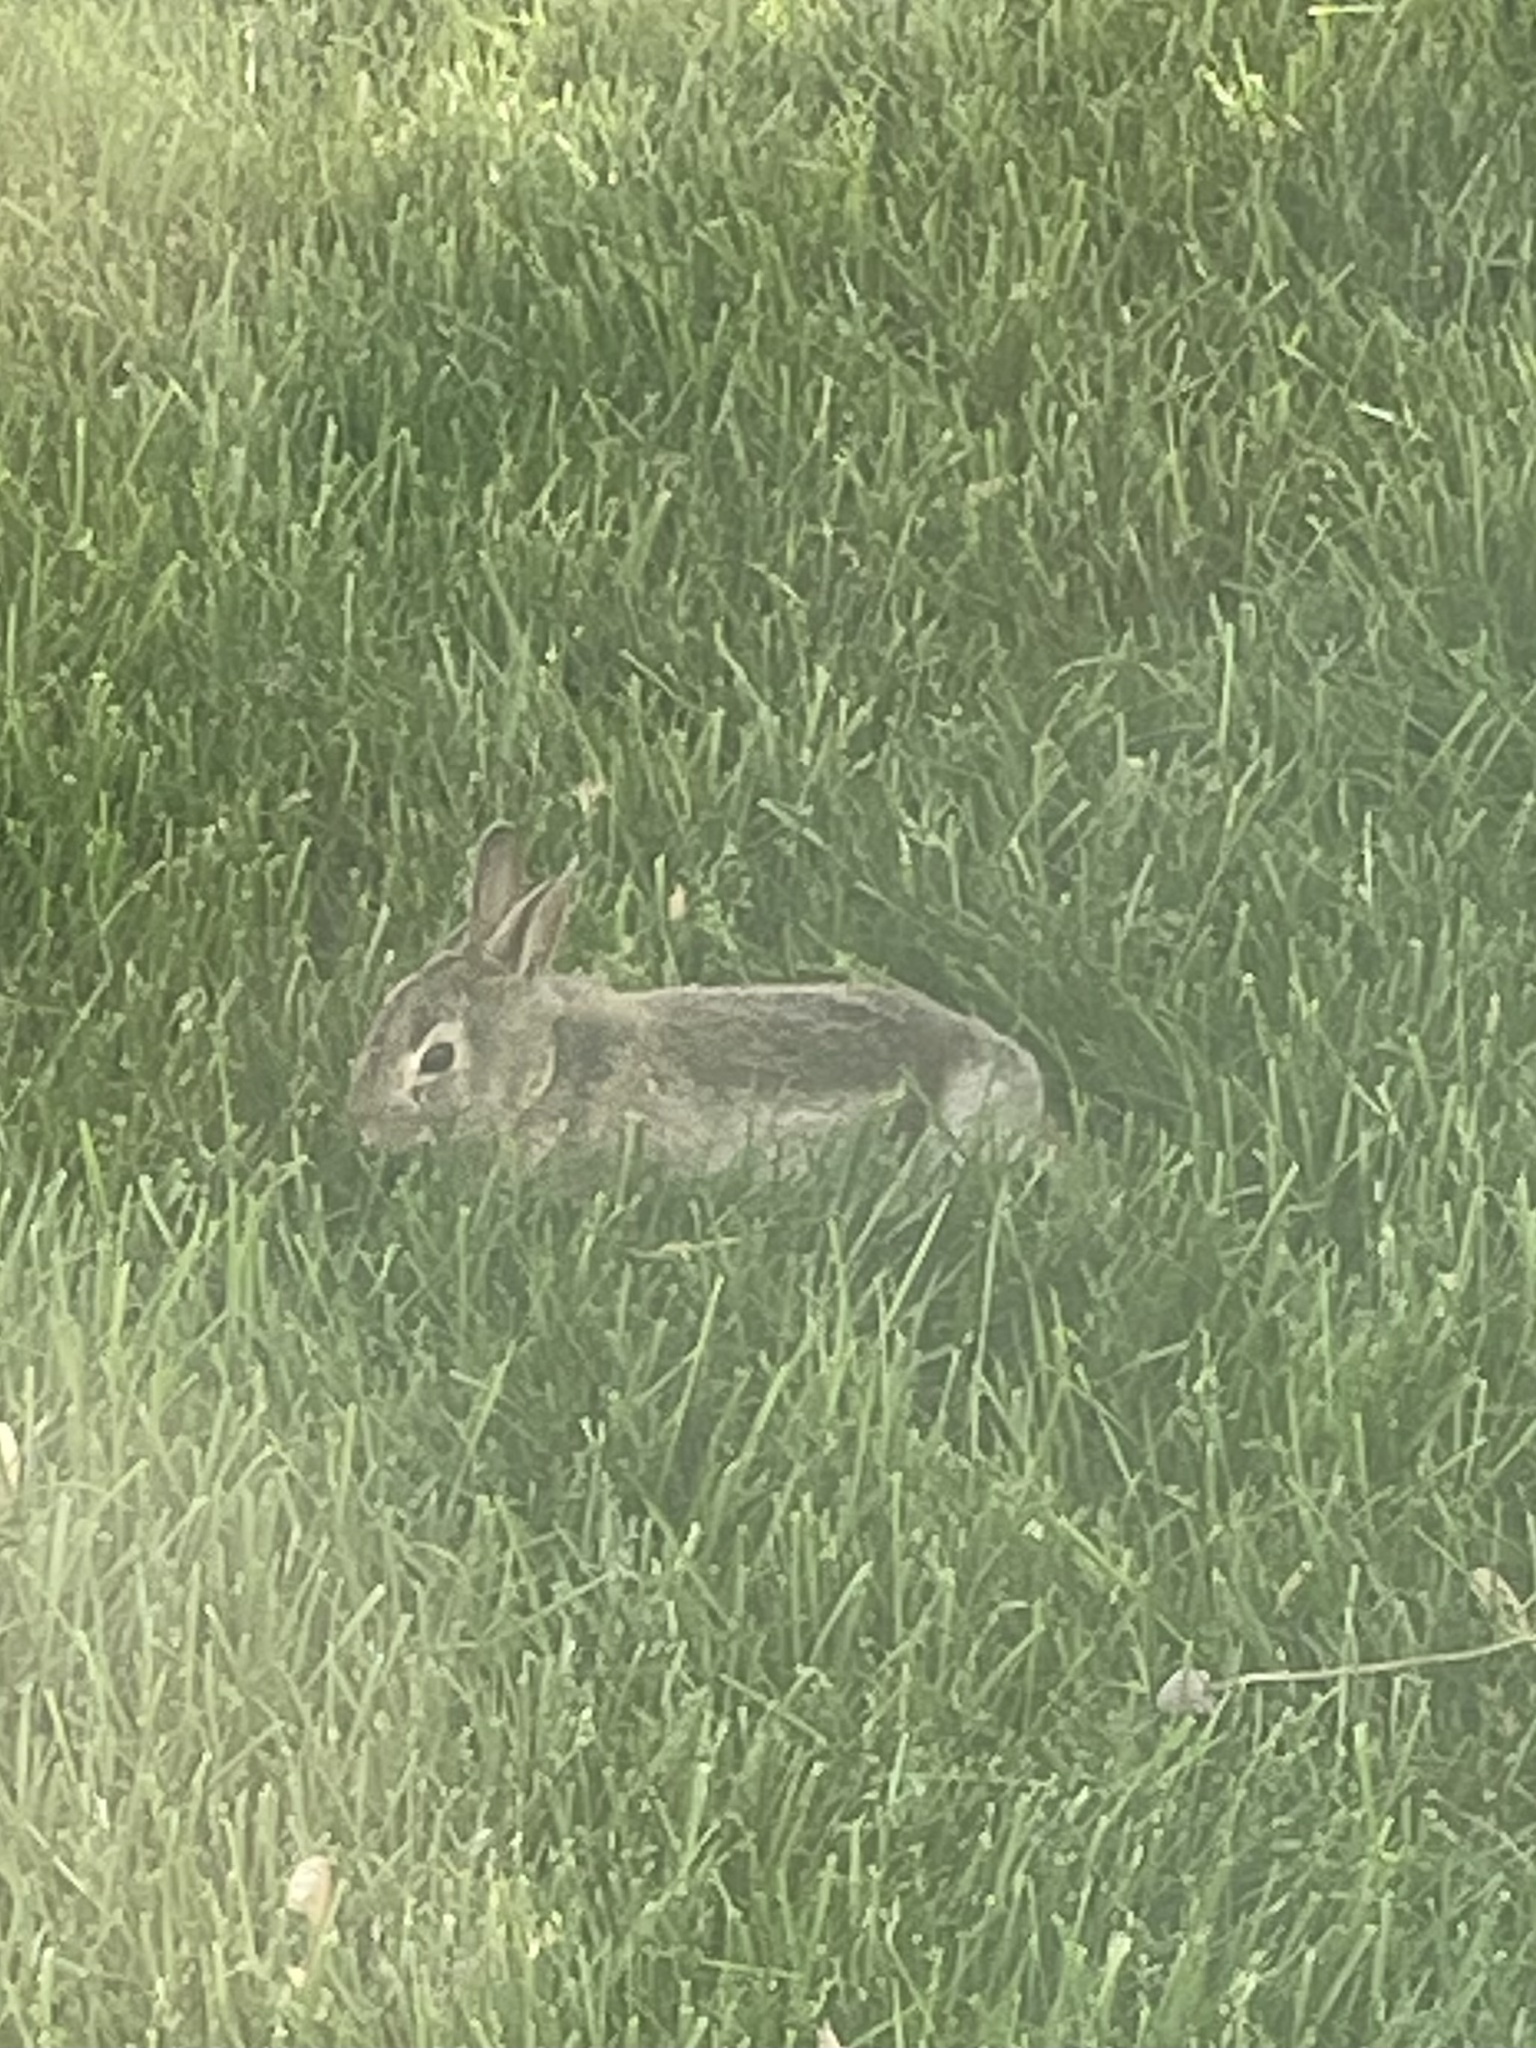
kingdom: Animalia
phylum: Chordata
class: Mammalia
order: Lagomorpha
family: Leporidae
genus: Sylvilagus
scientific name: Sylvilagus floridanus
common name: Eastern cottontail
